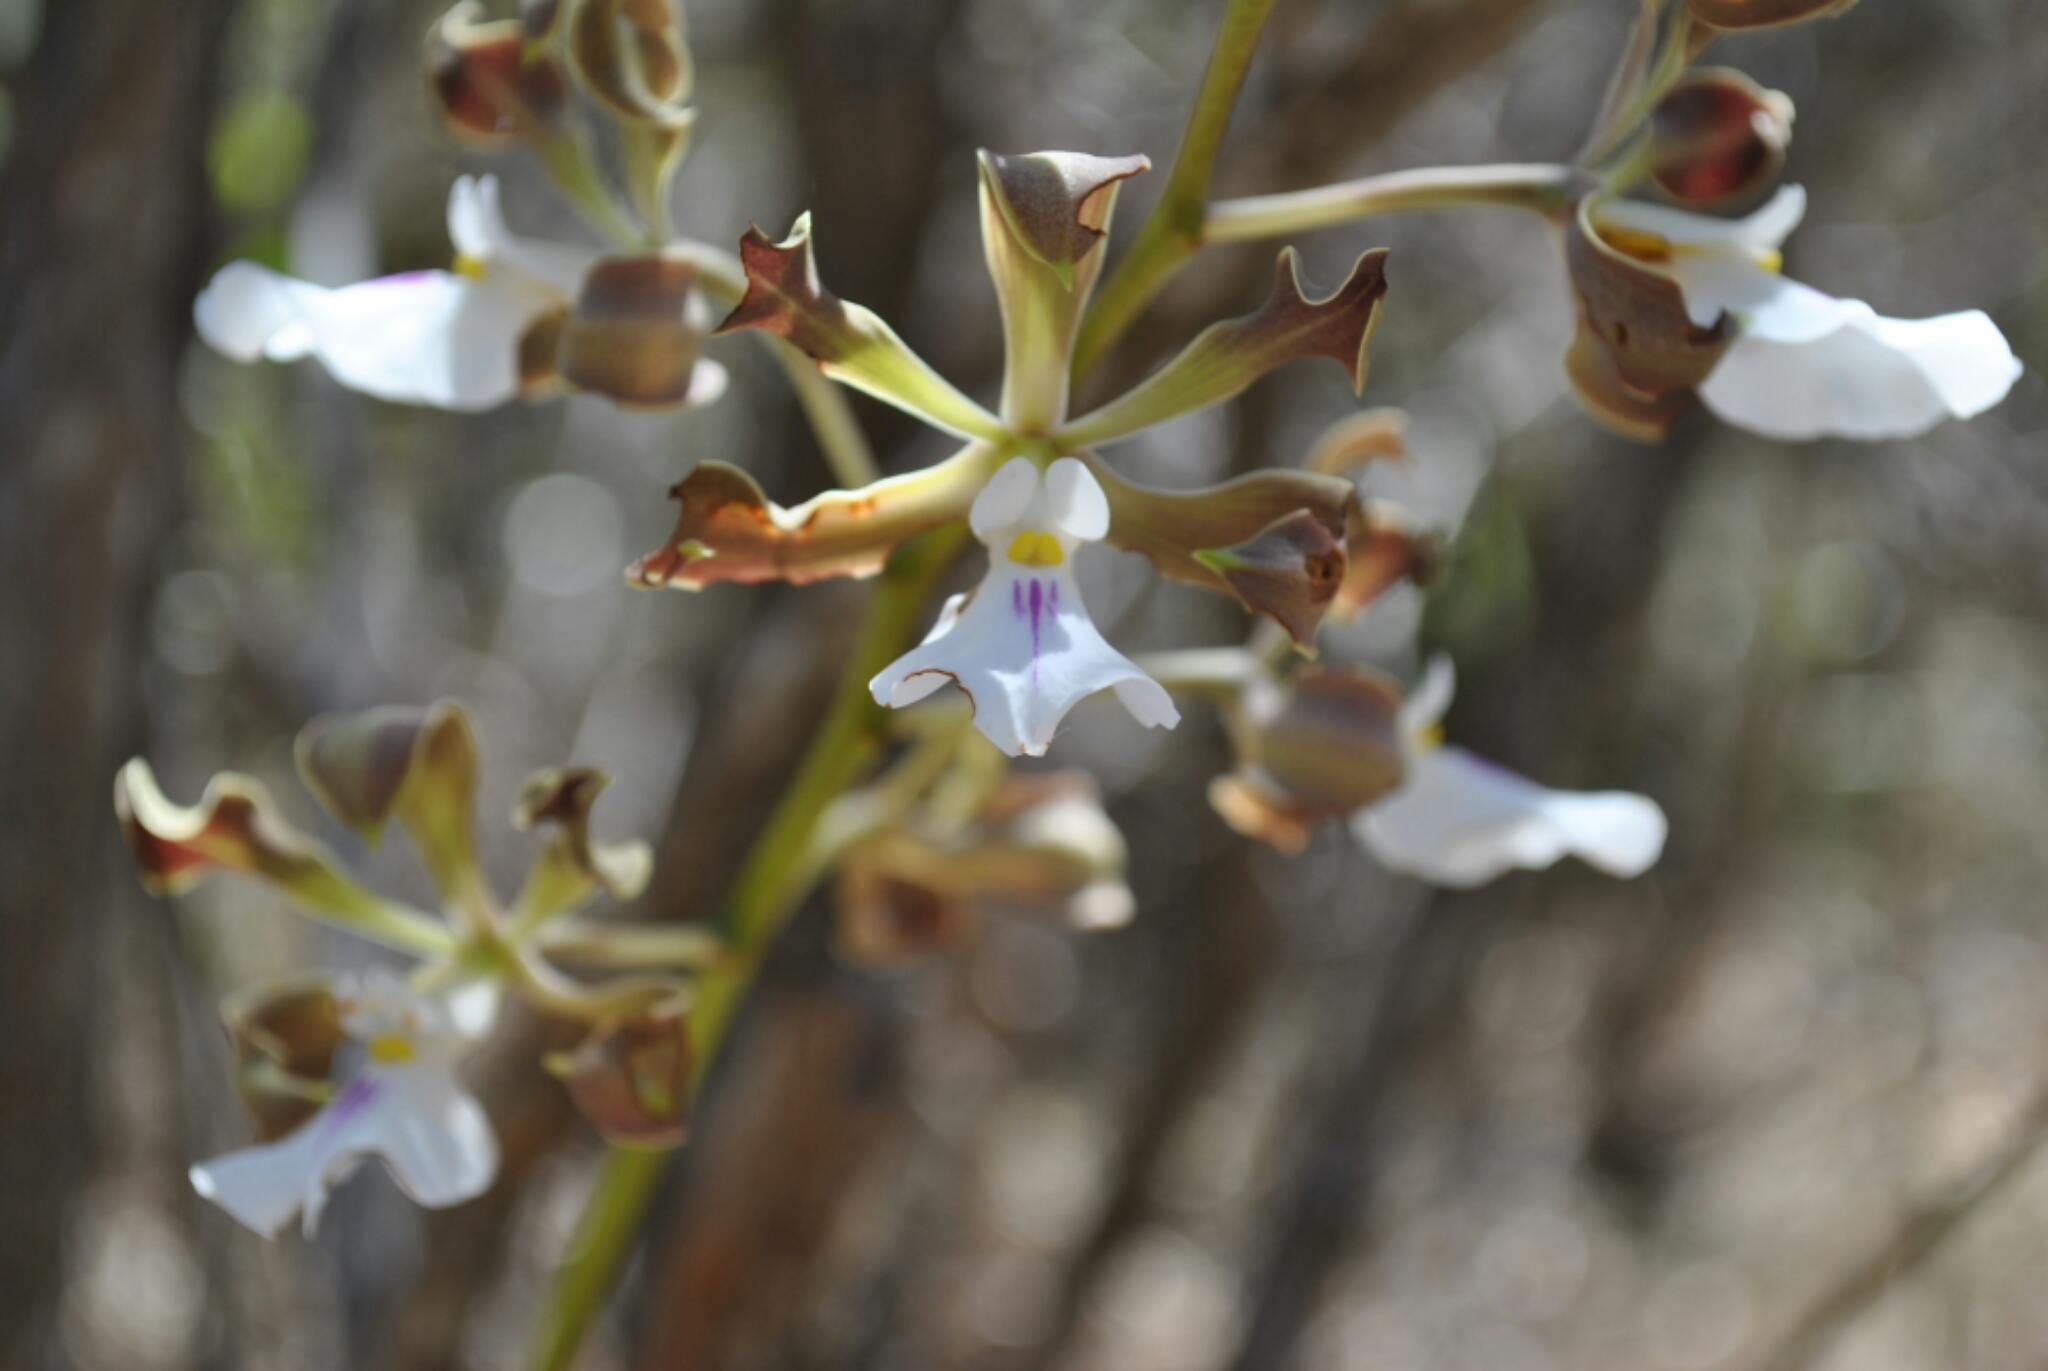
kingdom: Plantae
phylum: Tracheophyta
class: Liliopsida
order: Asparagales
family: Orchidaceae
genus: Encyclia
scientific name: Encyclia cordigera
